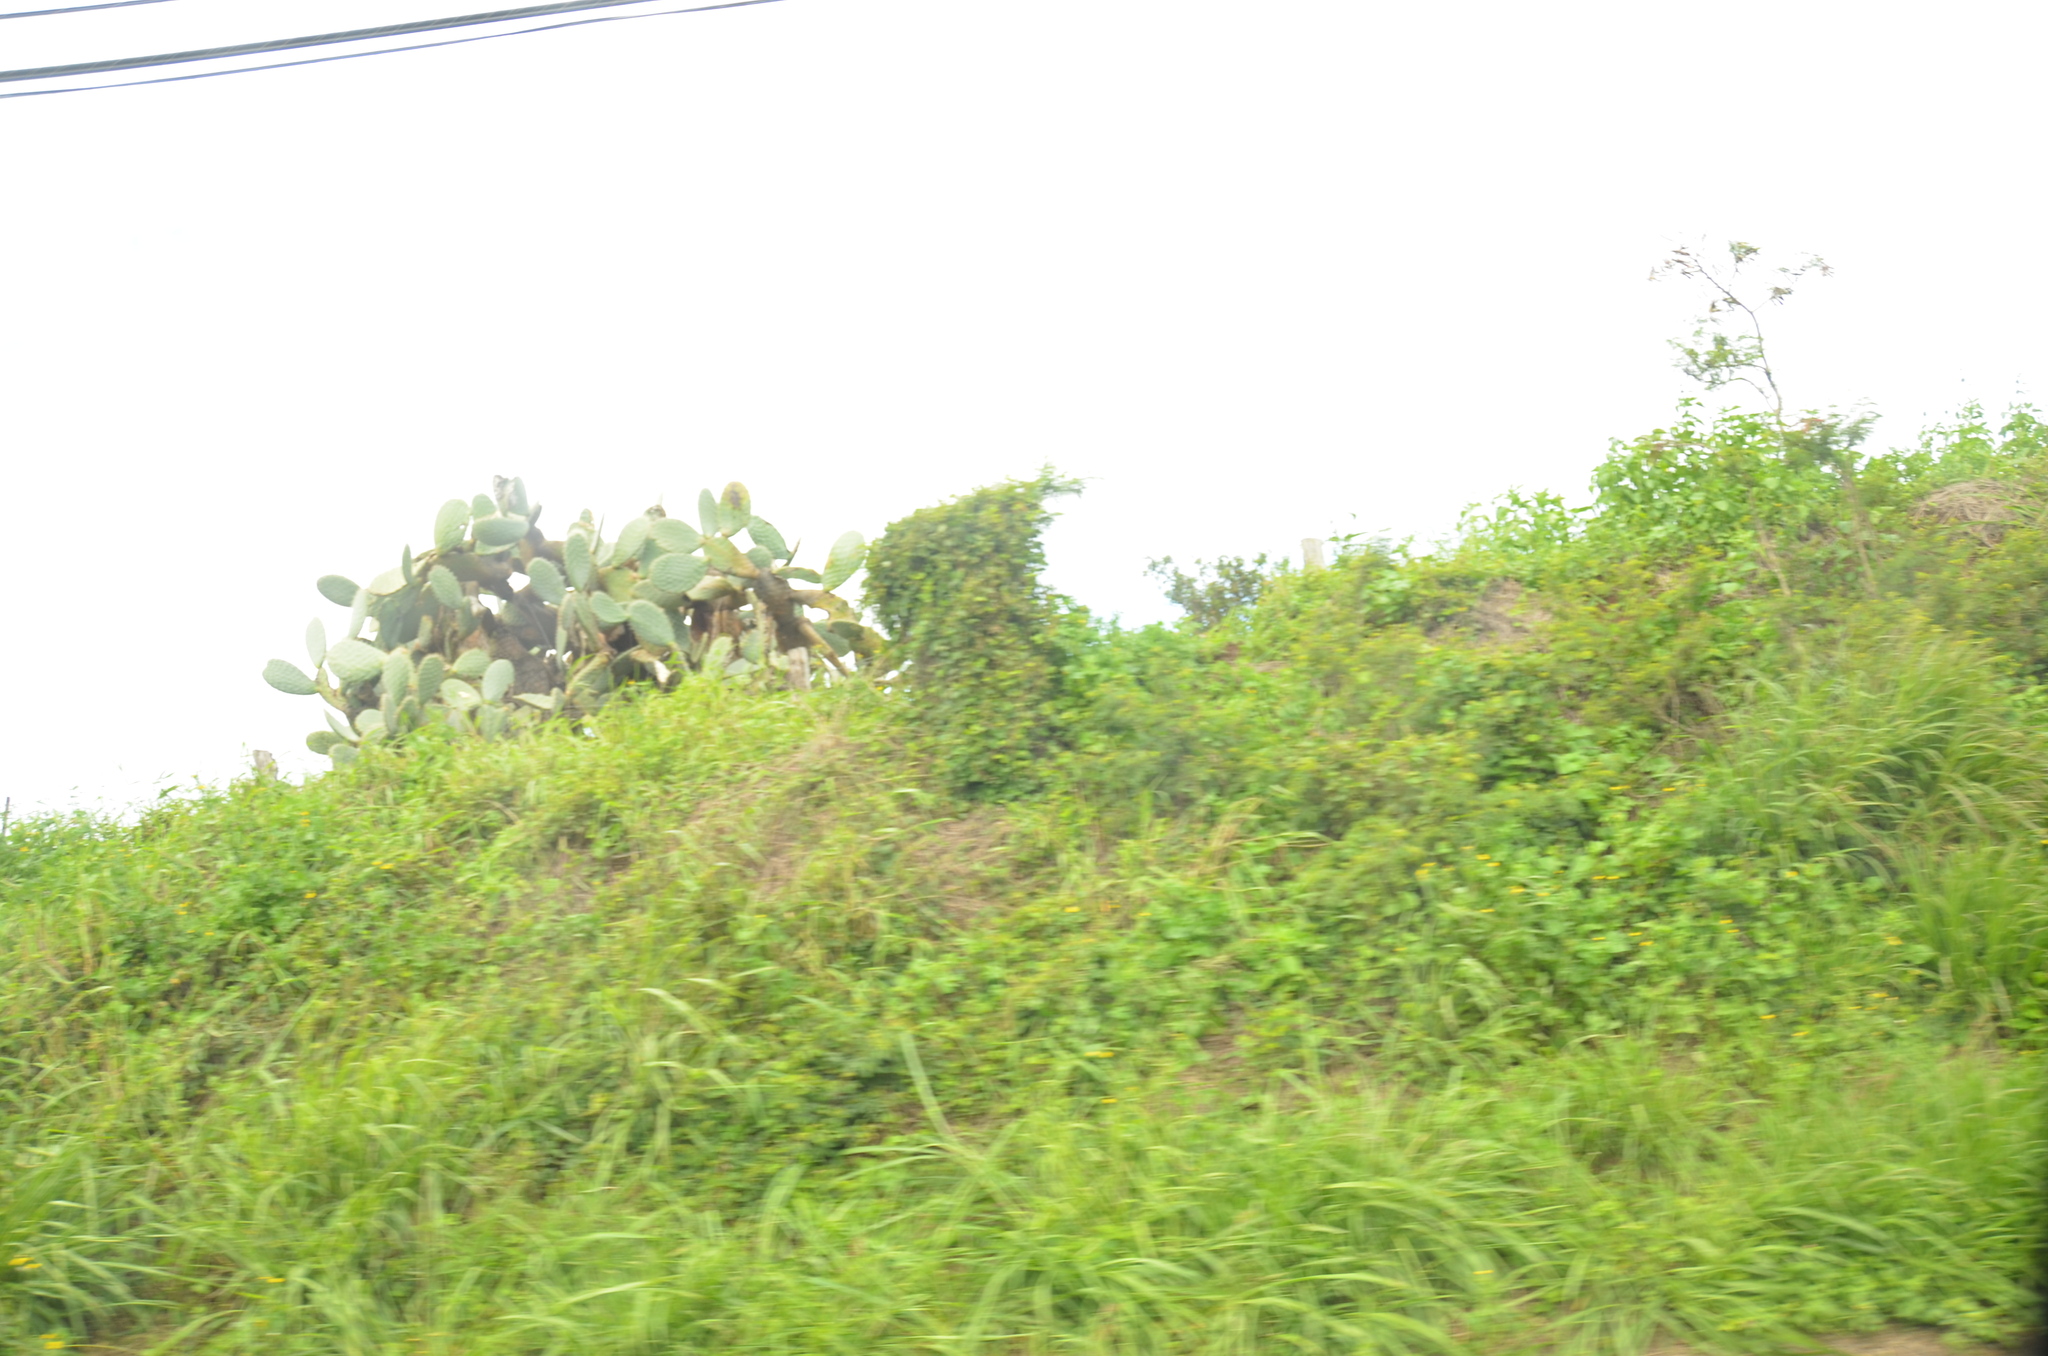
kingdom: Plantae
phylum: Tracheophyta
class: Magnoliopsida
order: Caryophyllales
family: Cactaceae
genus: Opuntia
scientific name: Opuntia ficus-indica
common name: Barbary fig
